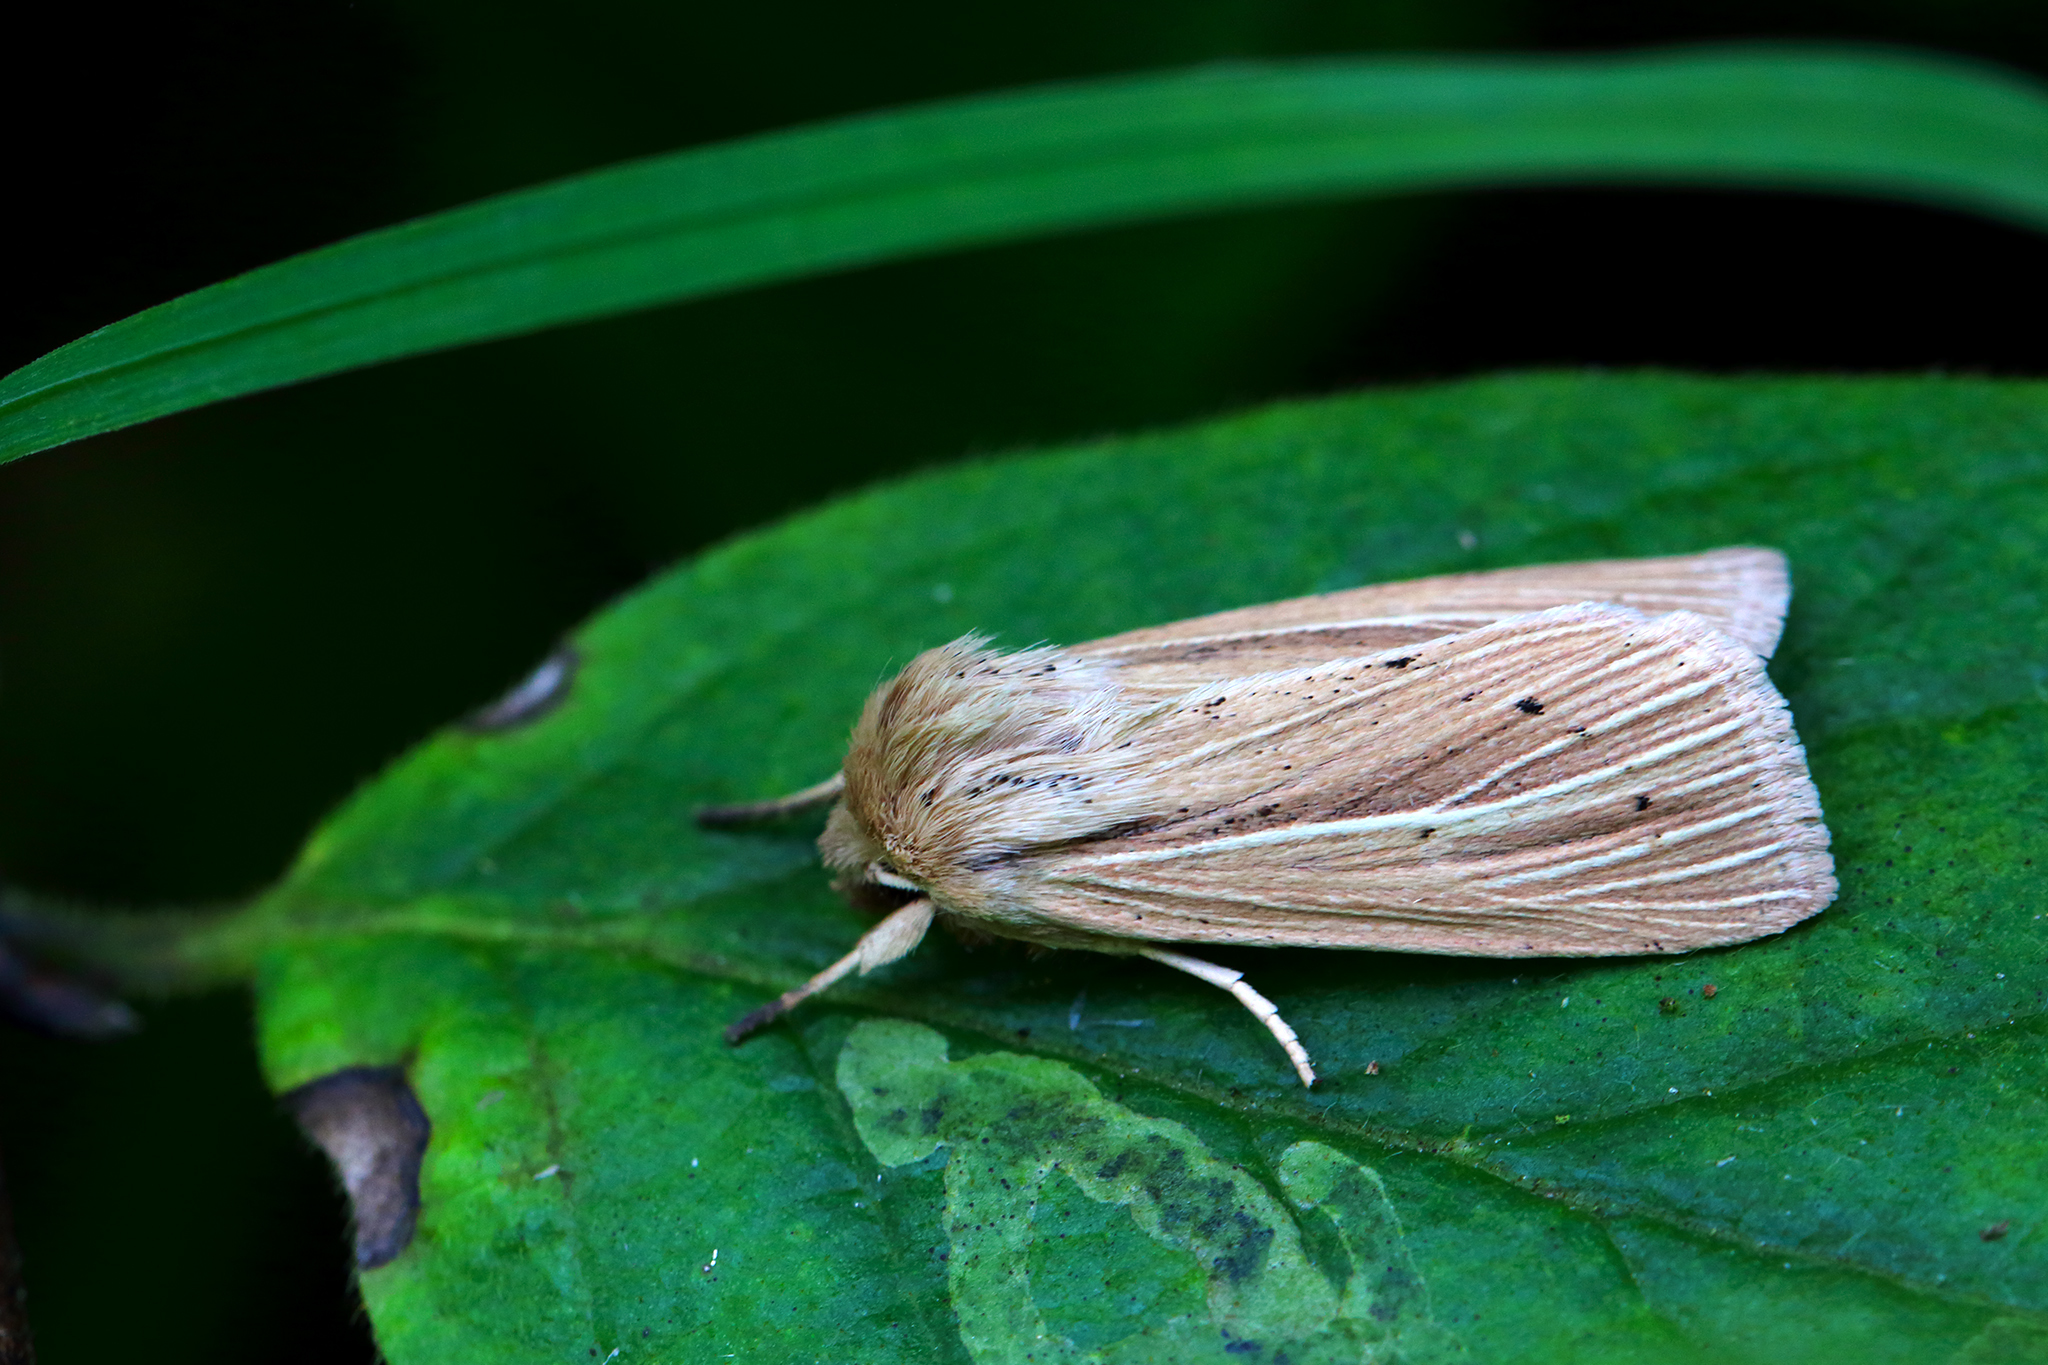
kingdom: Animalia
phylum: Arthropoda
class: Insecta
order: Lepidoptera
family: Noctuidae
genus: Mythimna
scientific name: Mythimna impura
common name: Smoky wainscot
